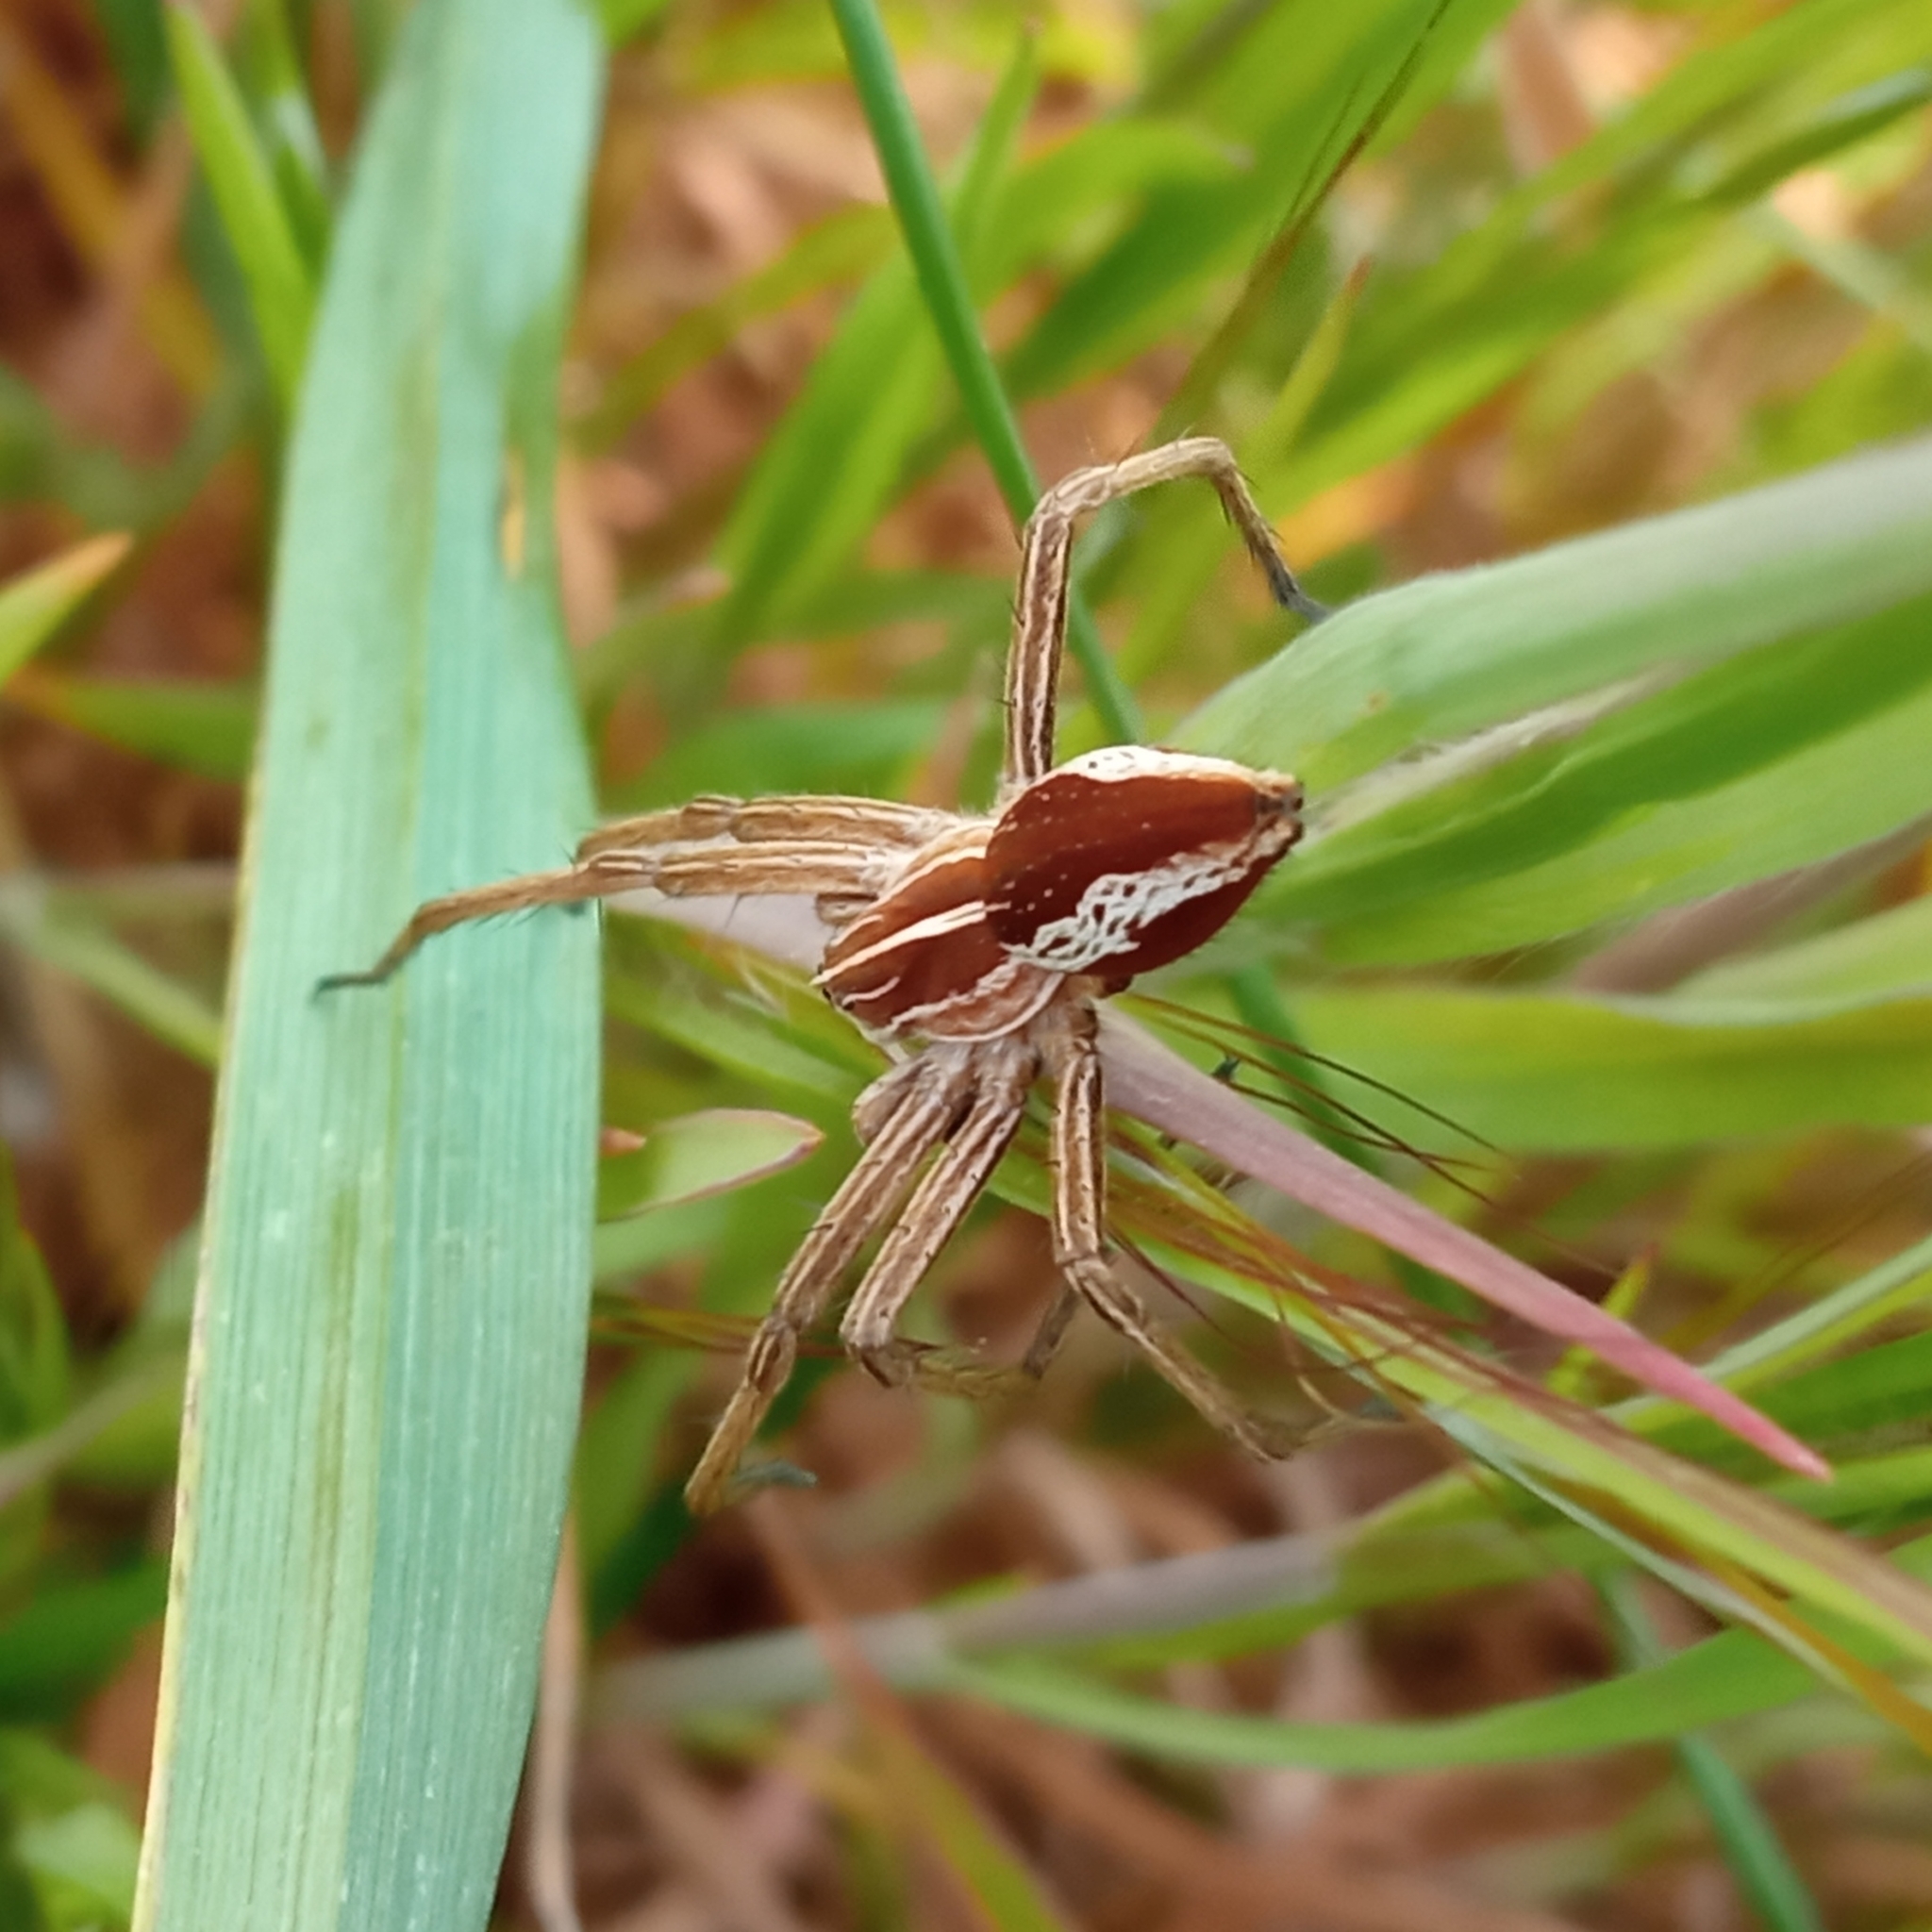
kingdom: Animalia
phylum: Arthropoda
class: Arachnida
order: Araneae
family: Pisauridae
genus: Pisaura
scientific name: Pisaura mirabilis
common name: Tent spider
